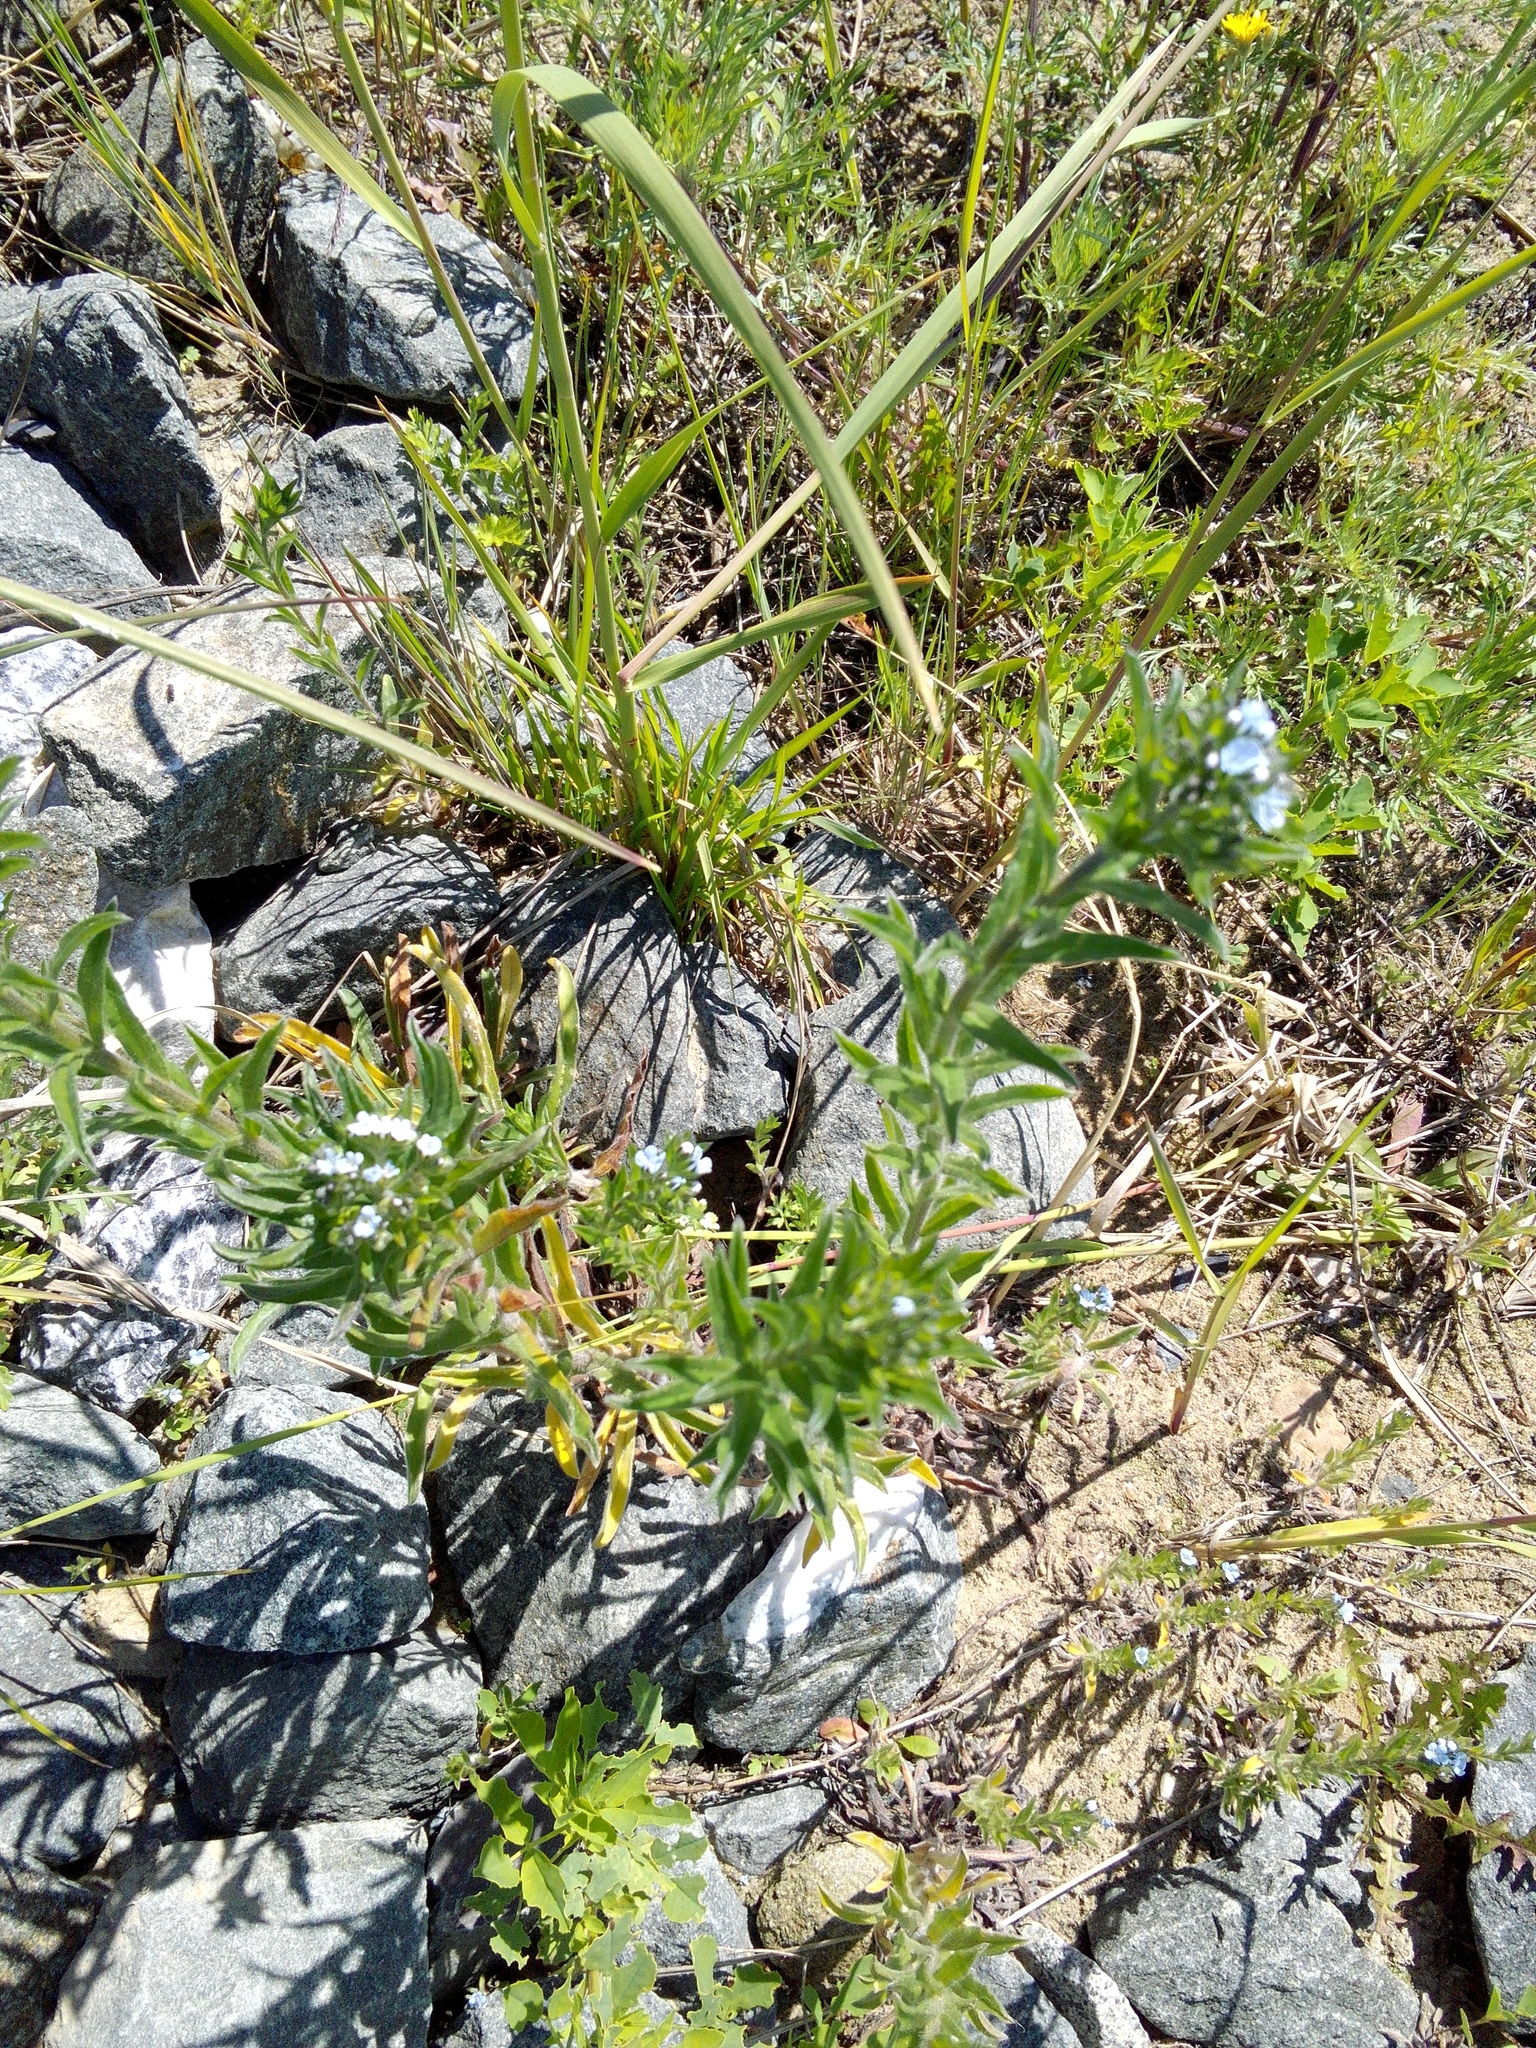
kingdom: Plantae
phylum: Tracheophyta
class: Magnoliopsida
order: Boraginales
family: Boraginaceae
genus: Lappula
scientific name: Lappula squarrosa
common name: European stickseed
